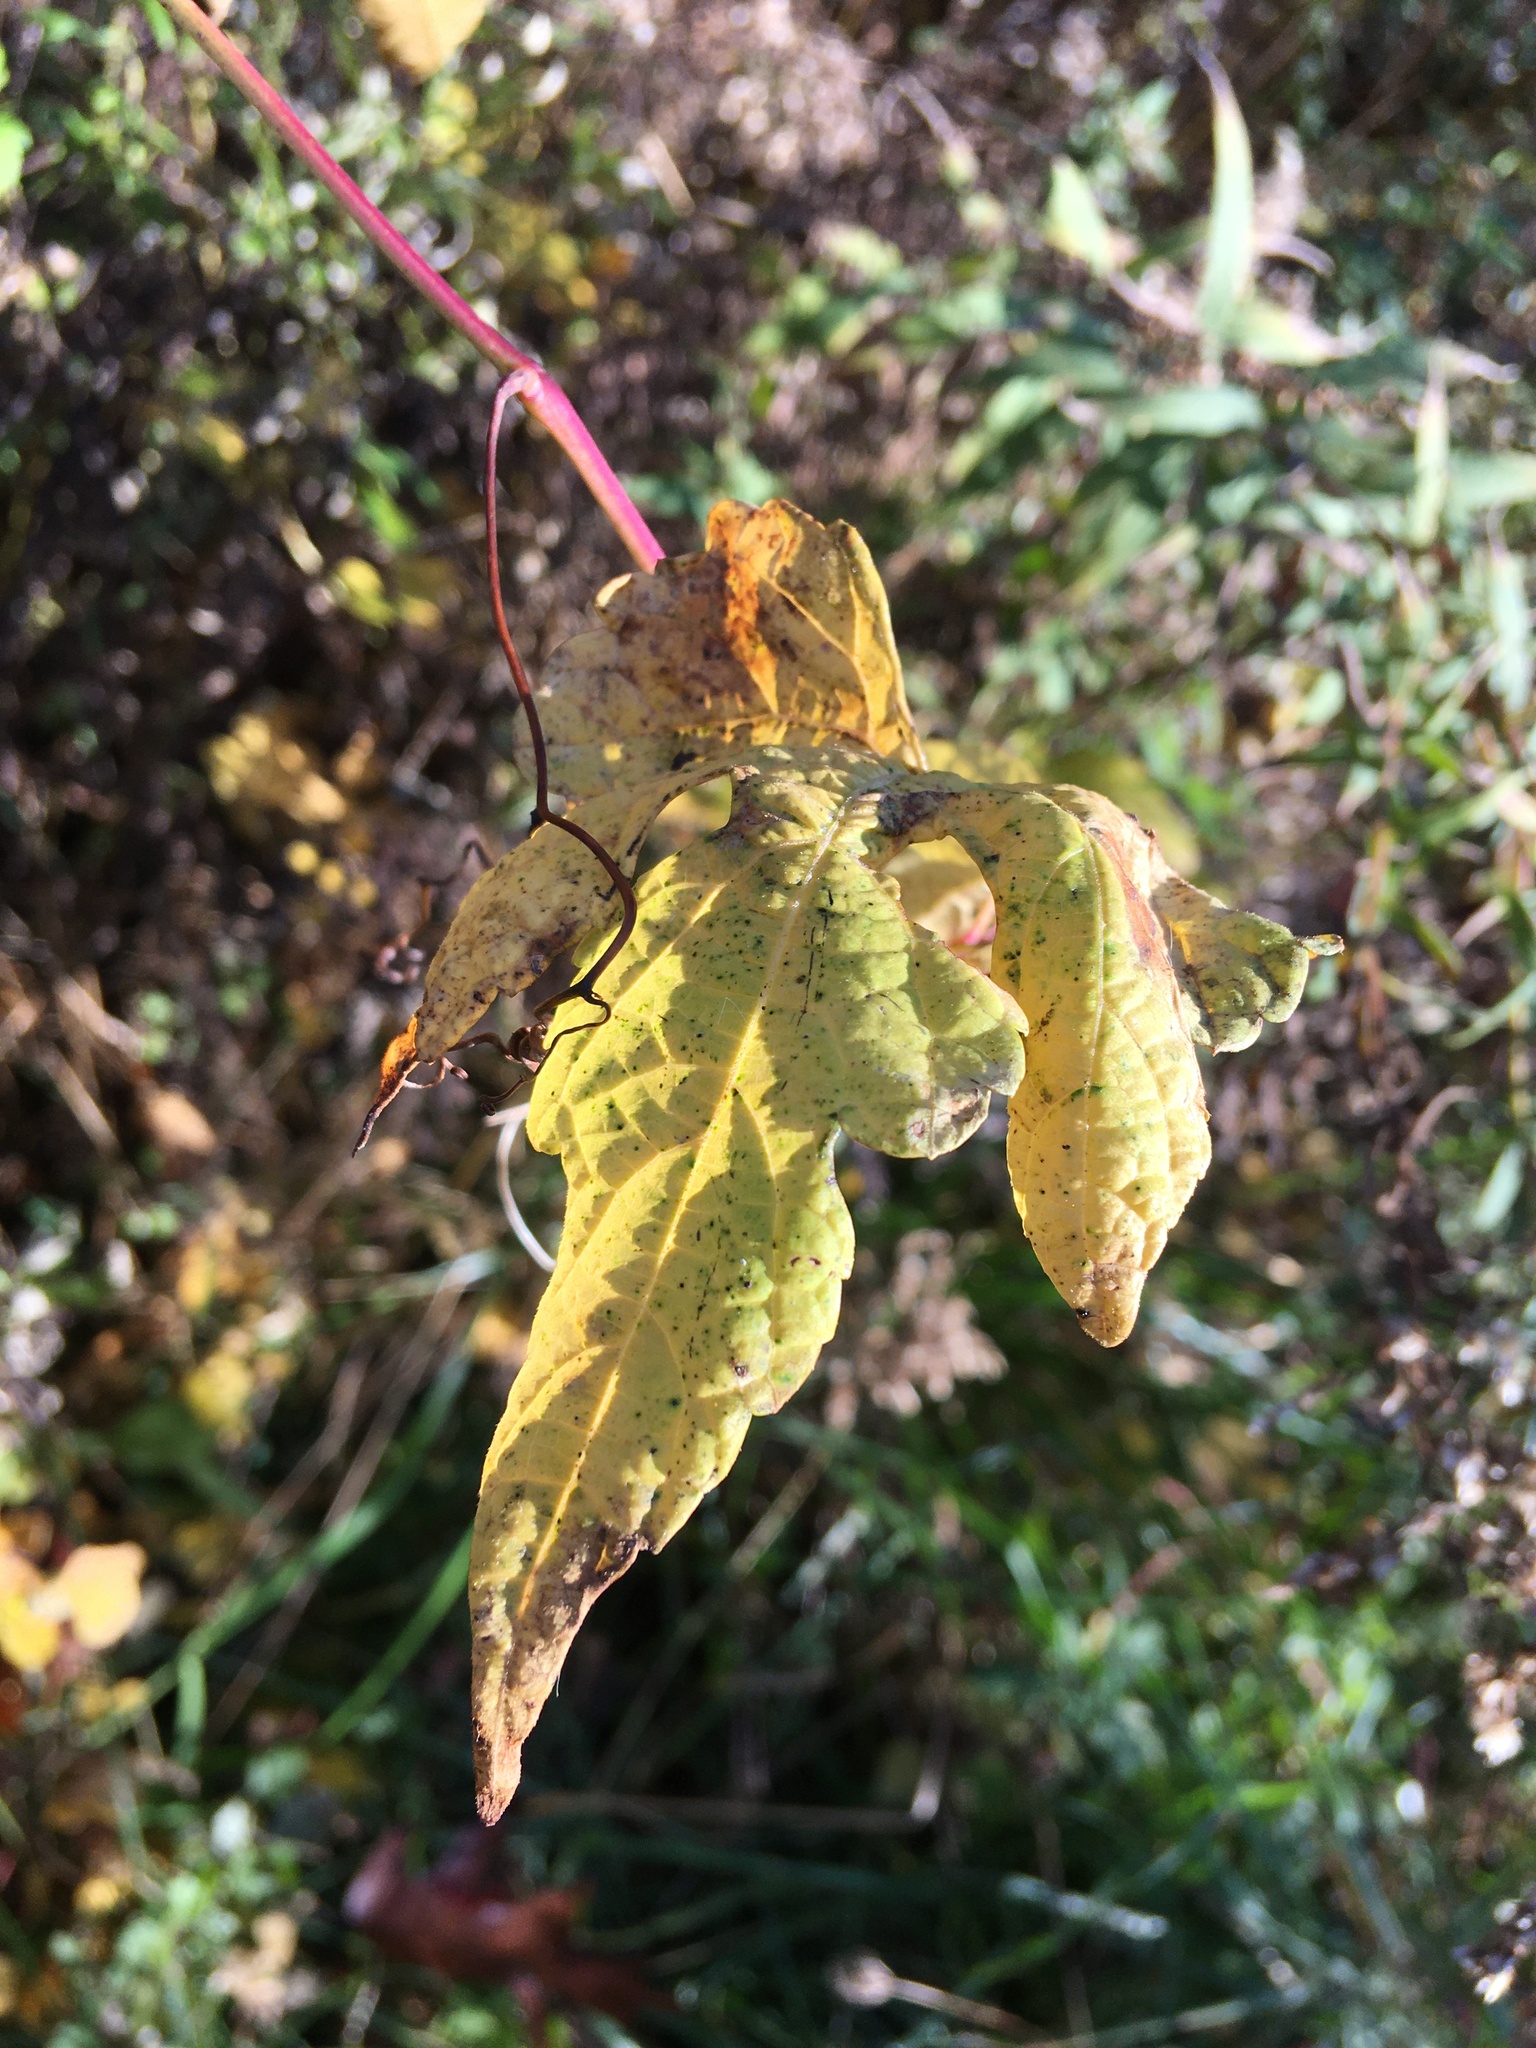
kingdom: Plantae
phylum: Tracheophyta
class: Magnoliopsida
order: Vitales
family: Vitaceae
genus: Ampelopsis
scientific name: Ampelopsis glandulosa
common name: Amur peppervine
